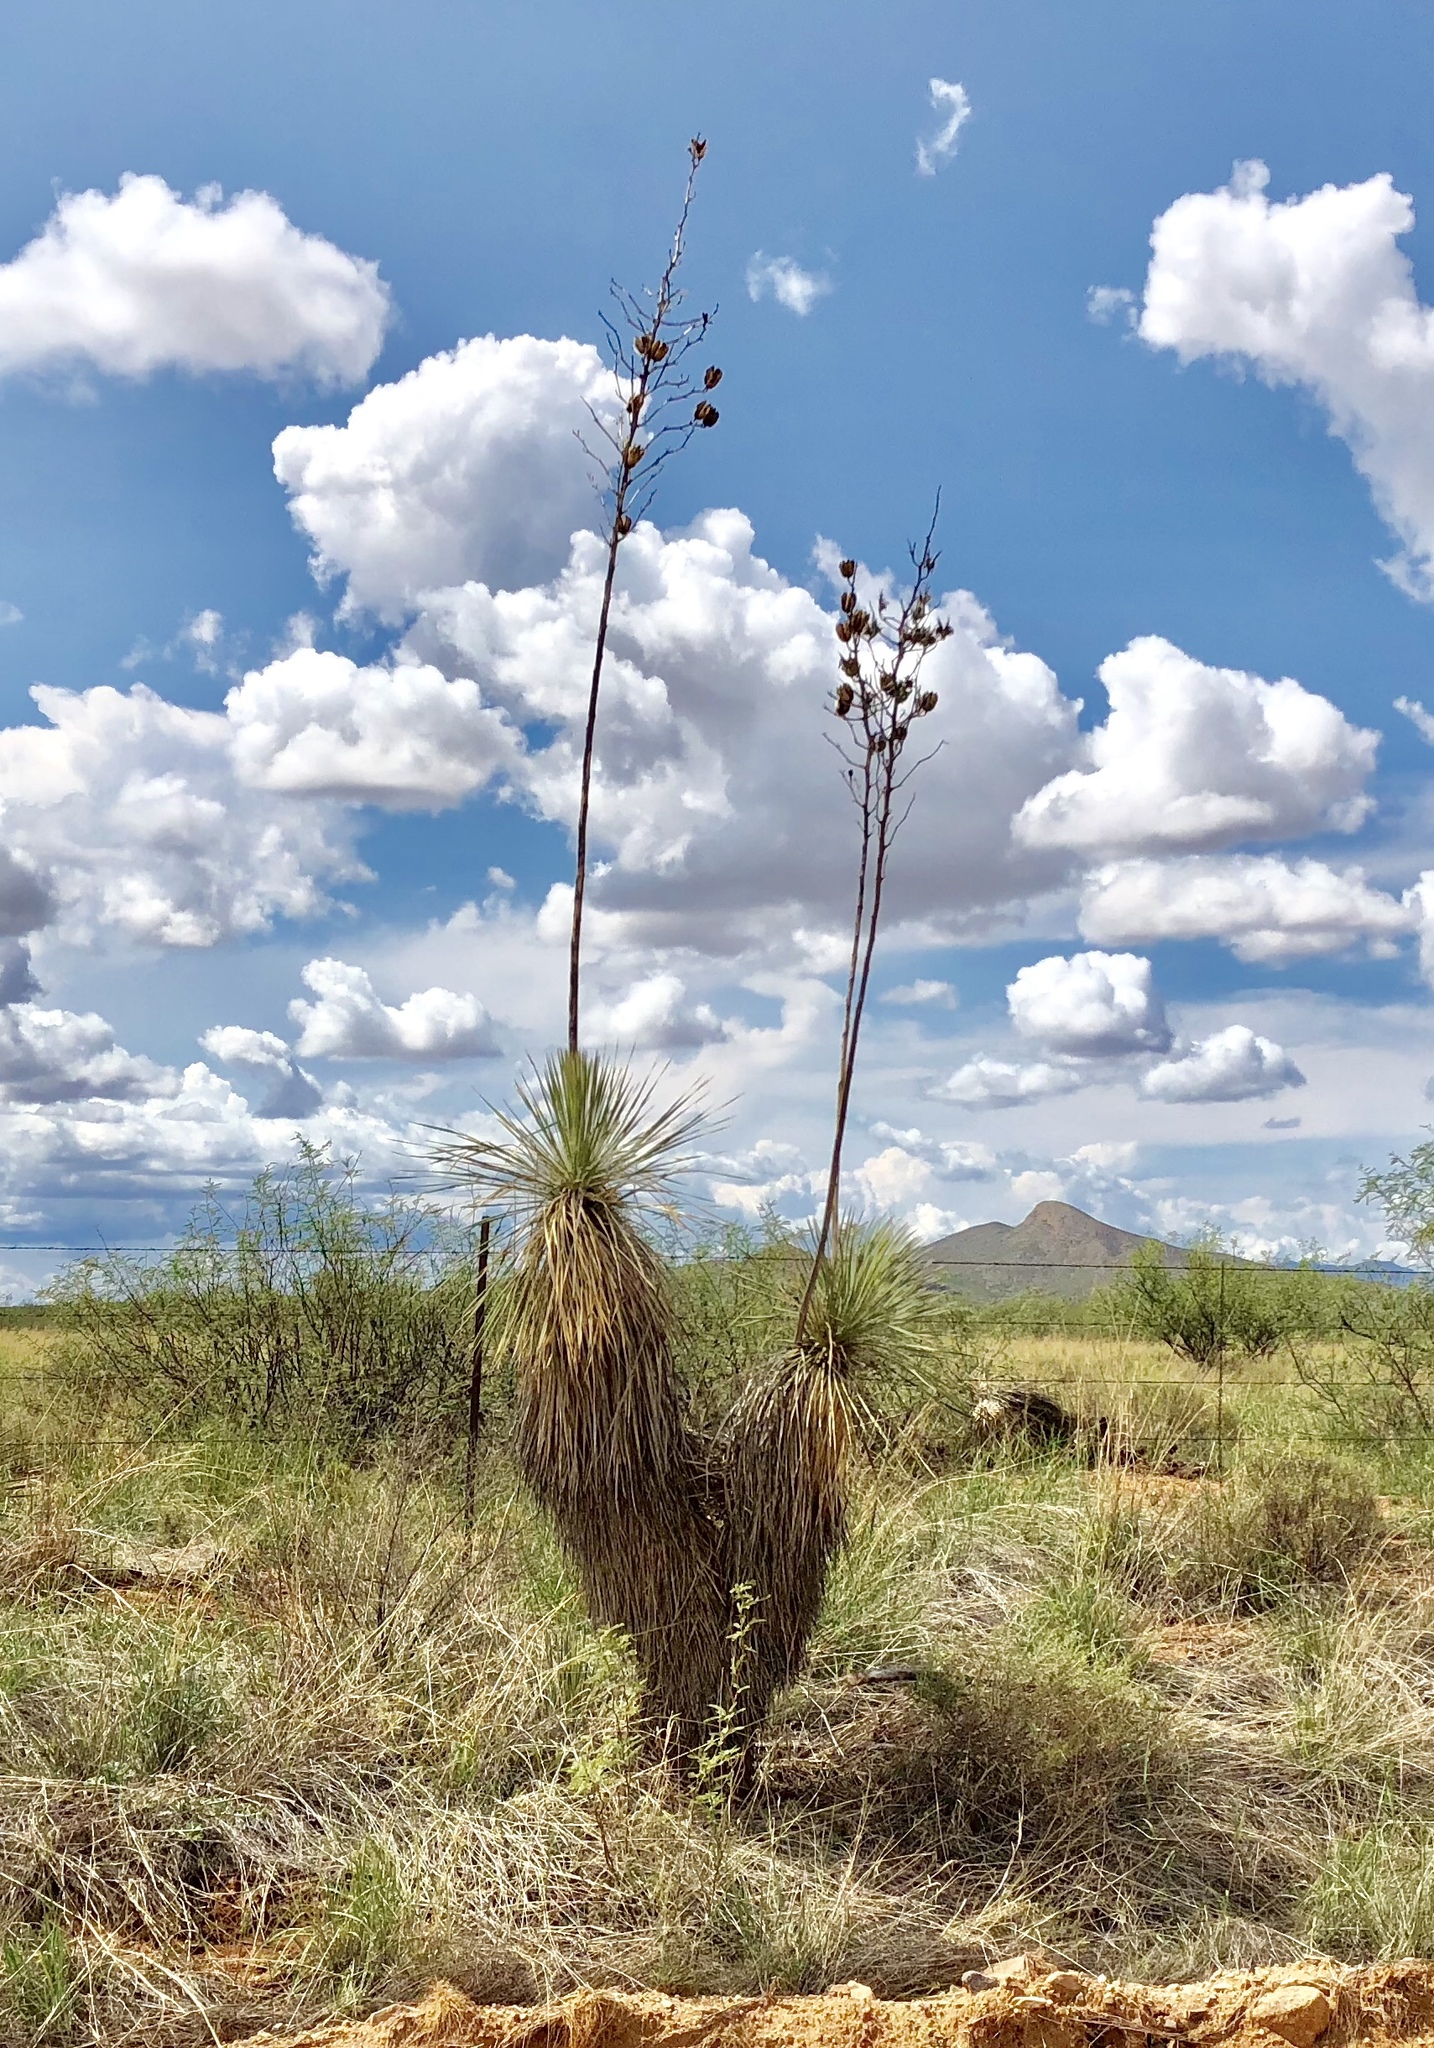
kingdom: Plantae
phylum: Tracheophyta
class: Liliopsida
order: Asparagales
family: Asparagaceae
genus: Yucca
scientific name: Yucca elata
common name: Palmella
